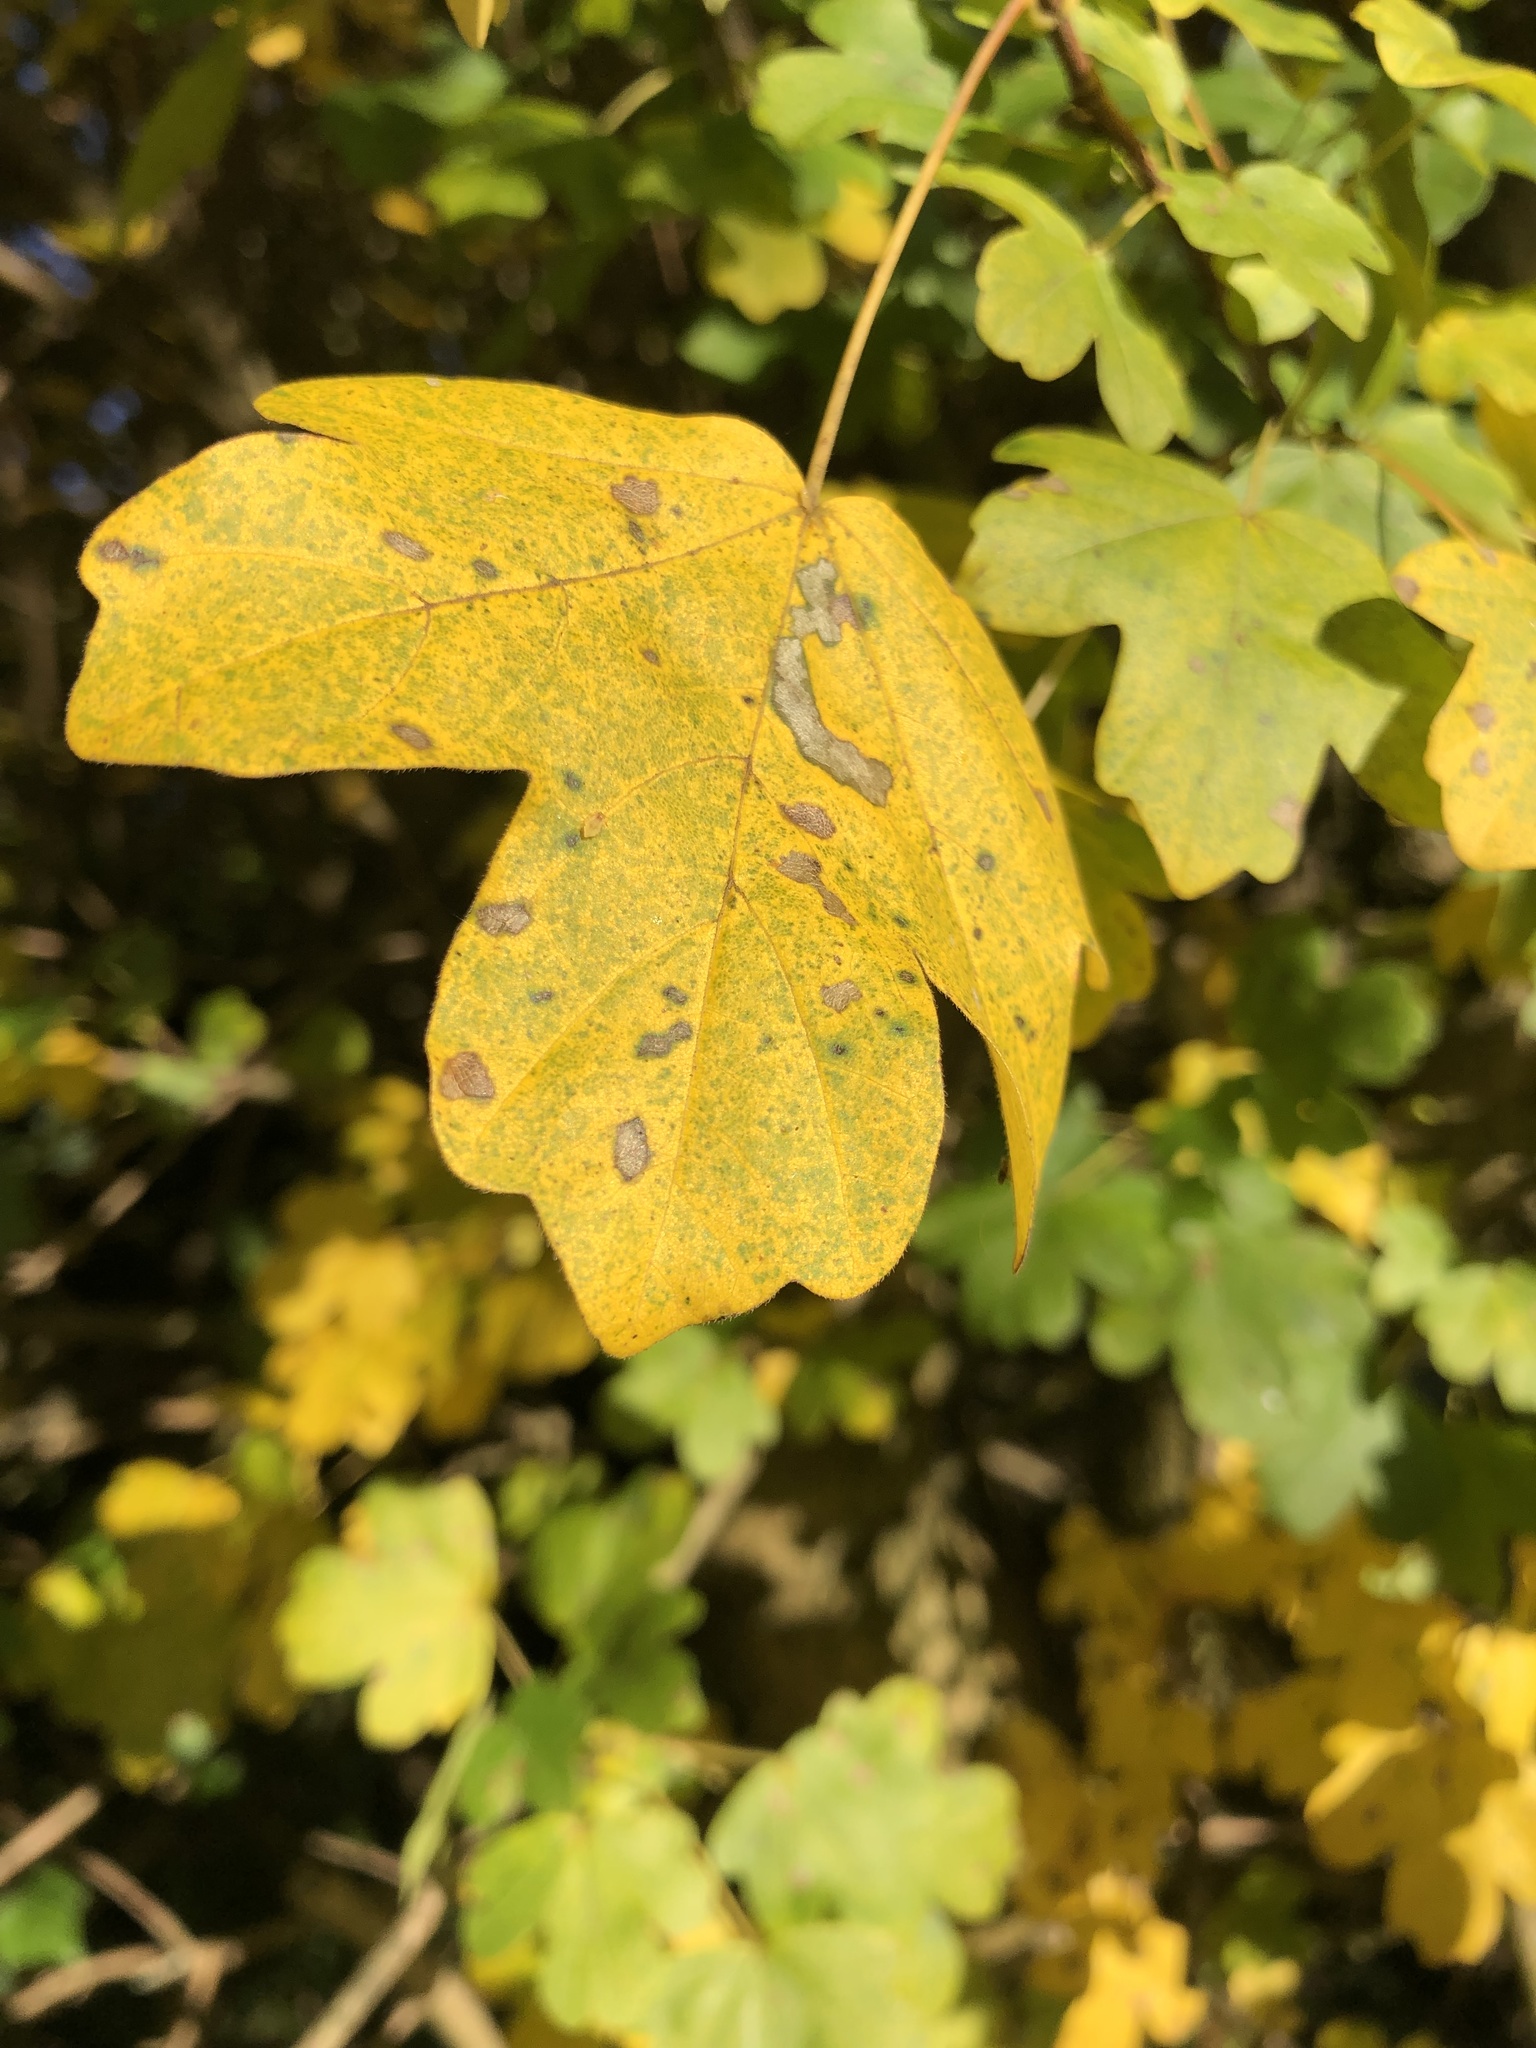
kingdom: Plantae
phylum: Tracheophyta
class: Magnoliopsida
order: Sapindales
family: Sapindaceae
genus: Acer
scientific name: Acer campestre
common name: Field maple
